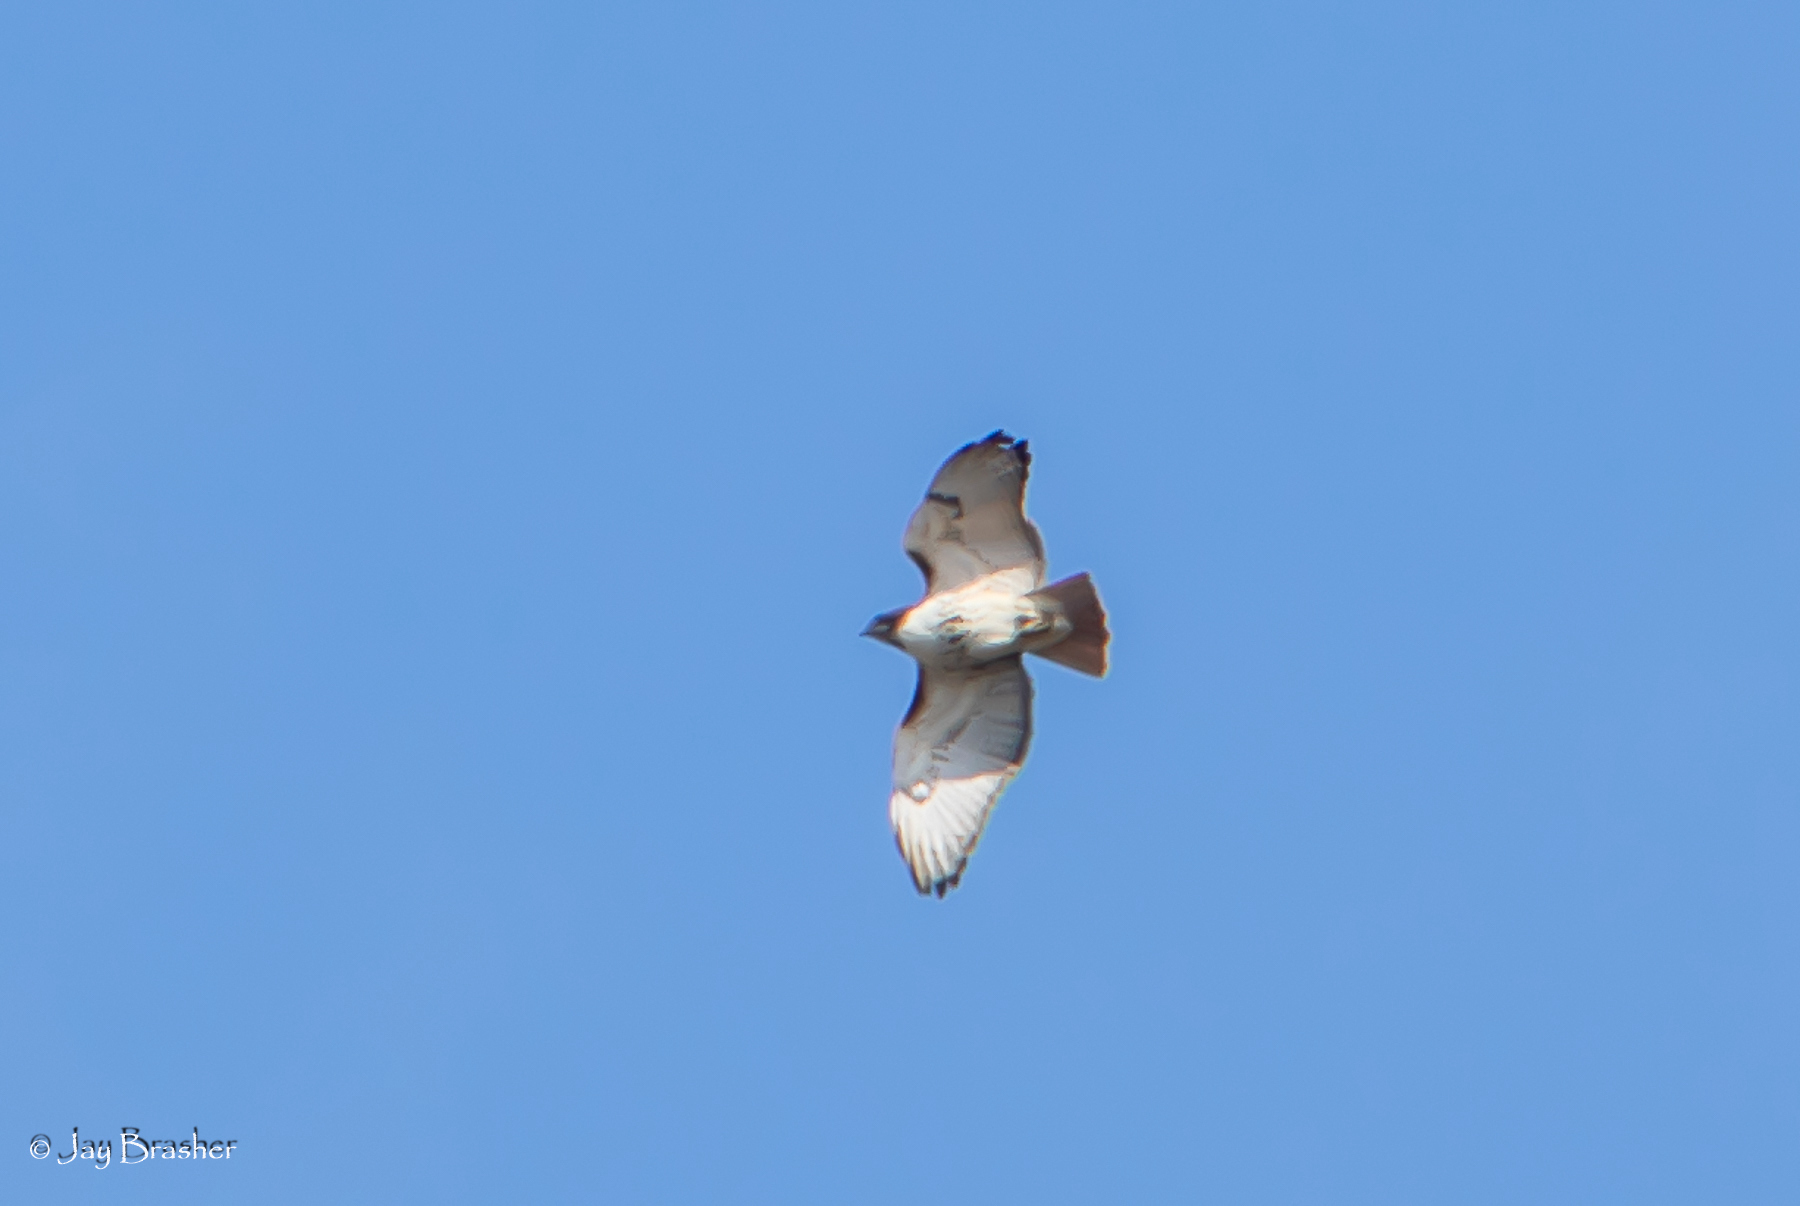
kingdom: Animalia
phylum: Chordata
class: Aves
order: Accipitriformes
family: Accipitridae
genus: Buteo
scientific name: Buteo jamaicensis
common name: Red-tailed hawk
